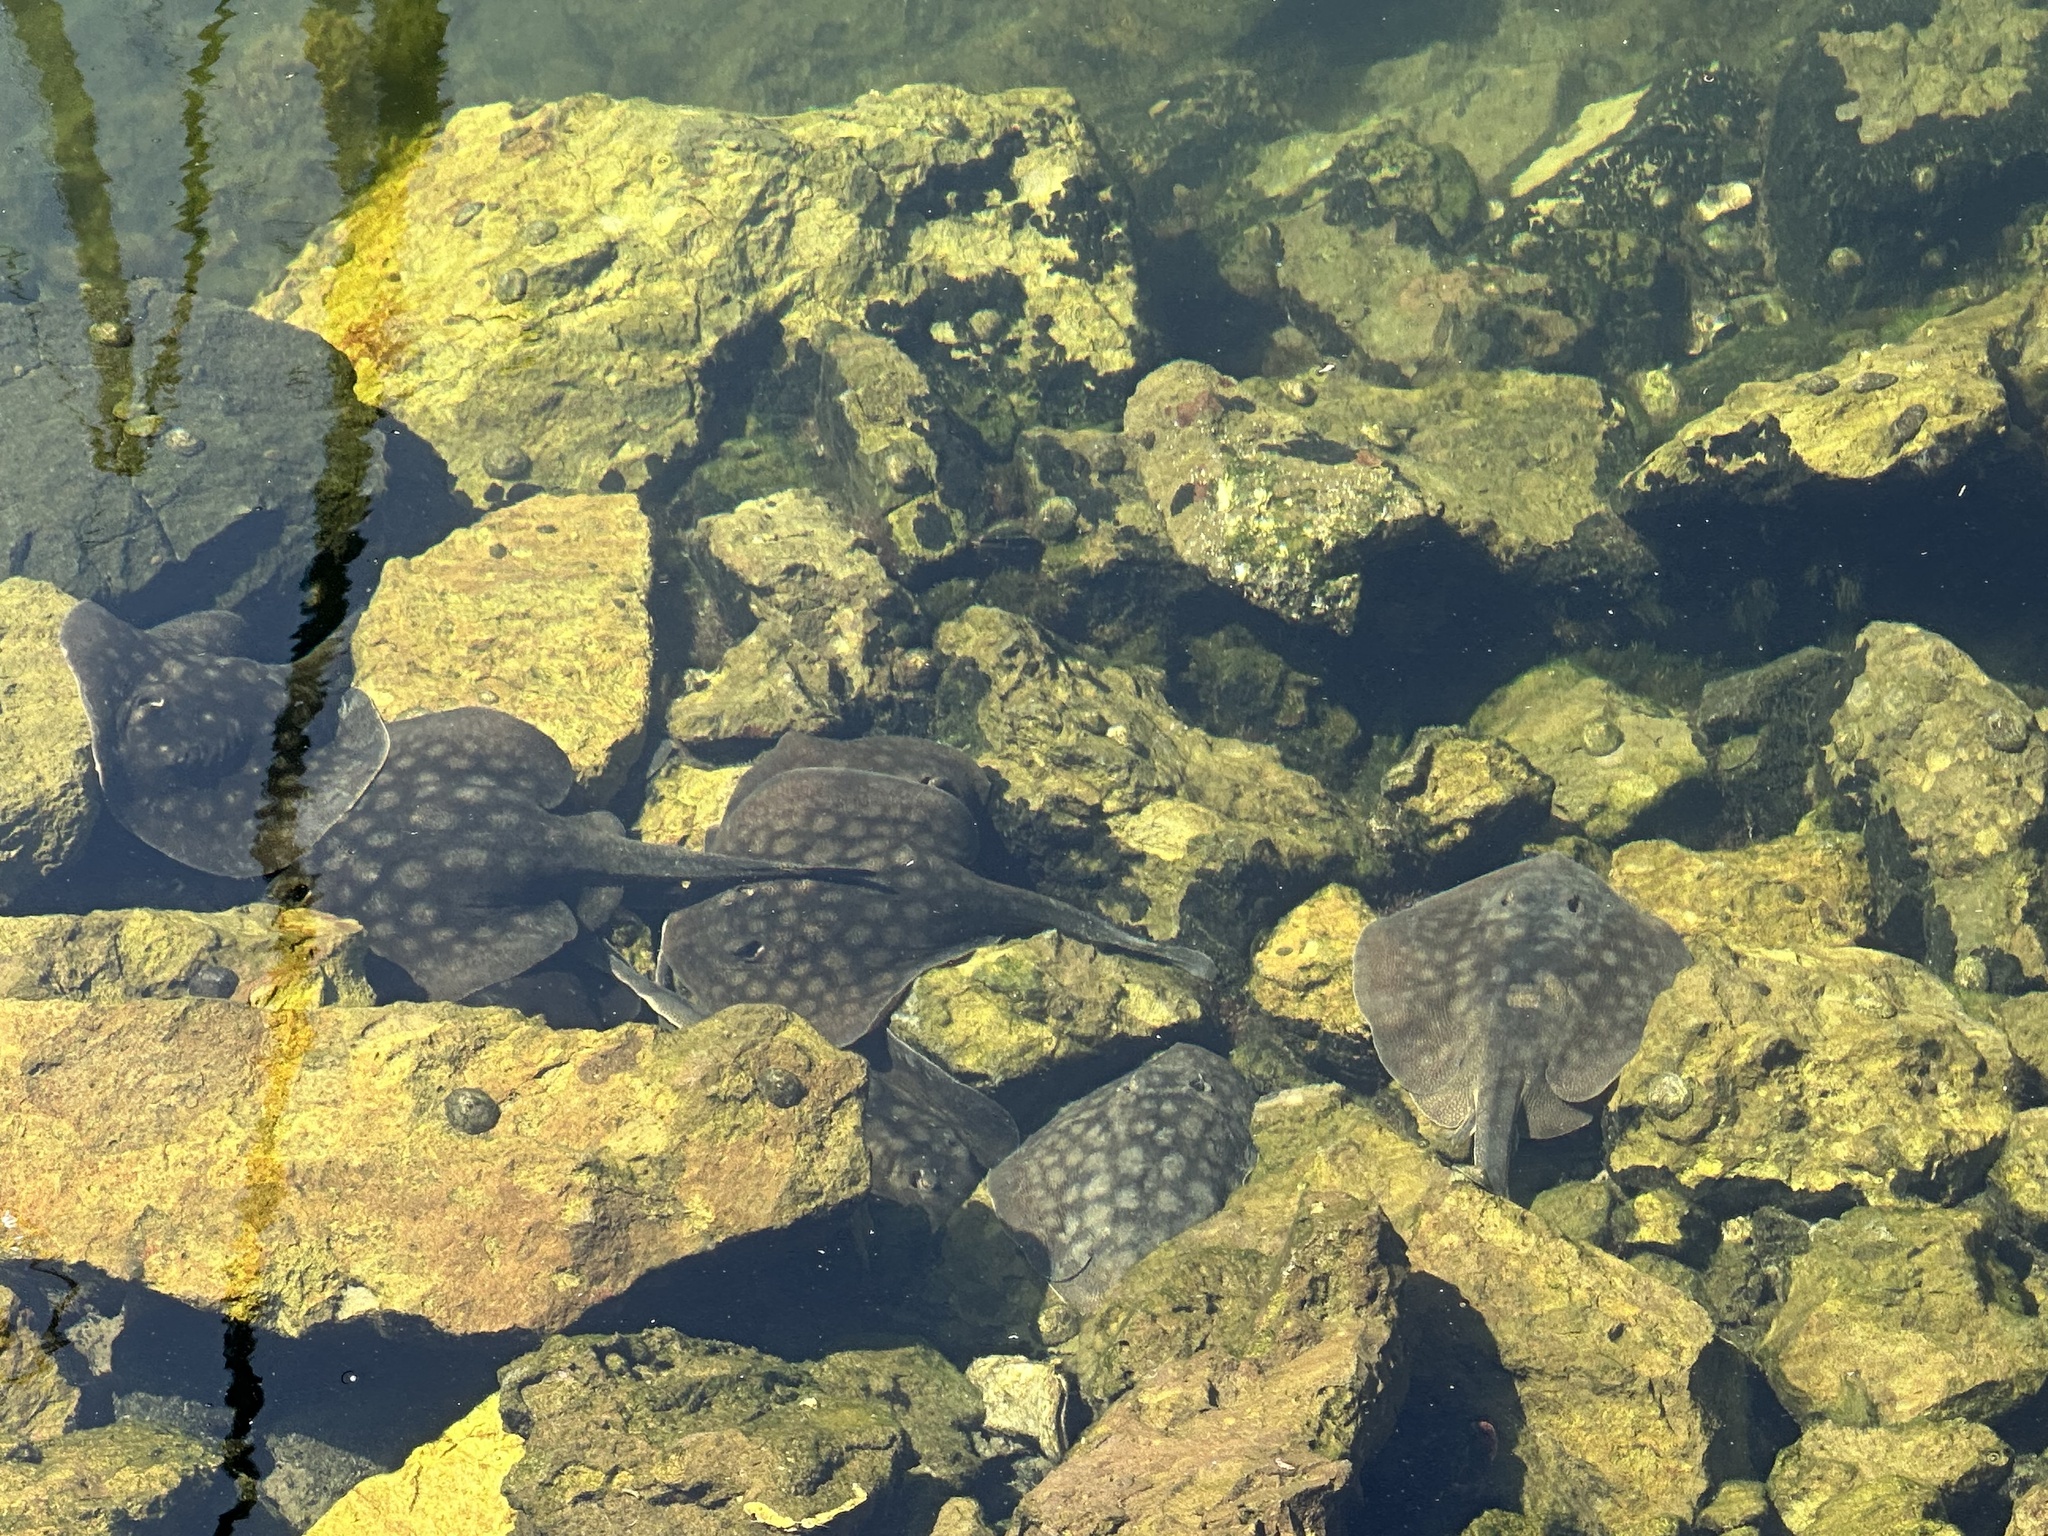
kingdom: Animalia
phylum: Chordata
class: Elasmobranchii
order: Myliobatiformes
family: Urolophidae
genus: Urolophus
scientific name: Urolophus halleri
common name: Round stingray
